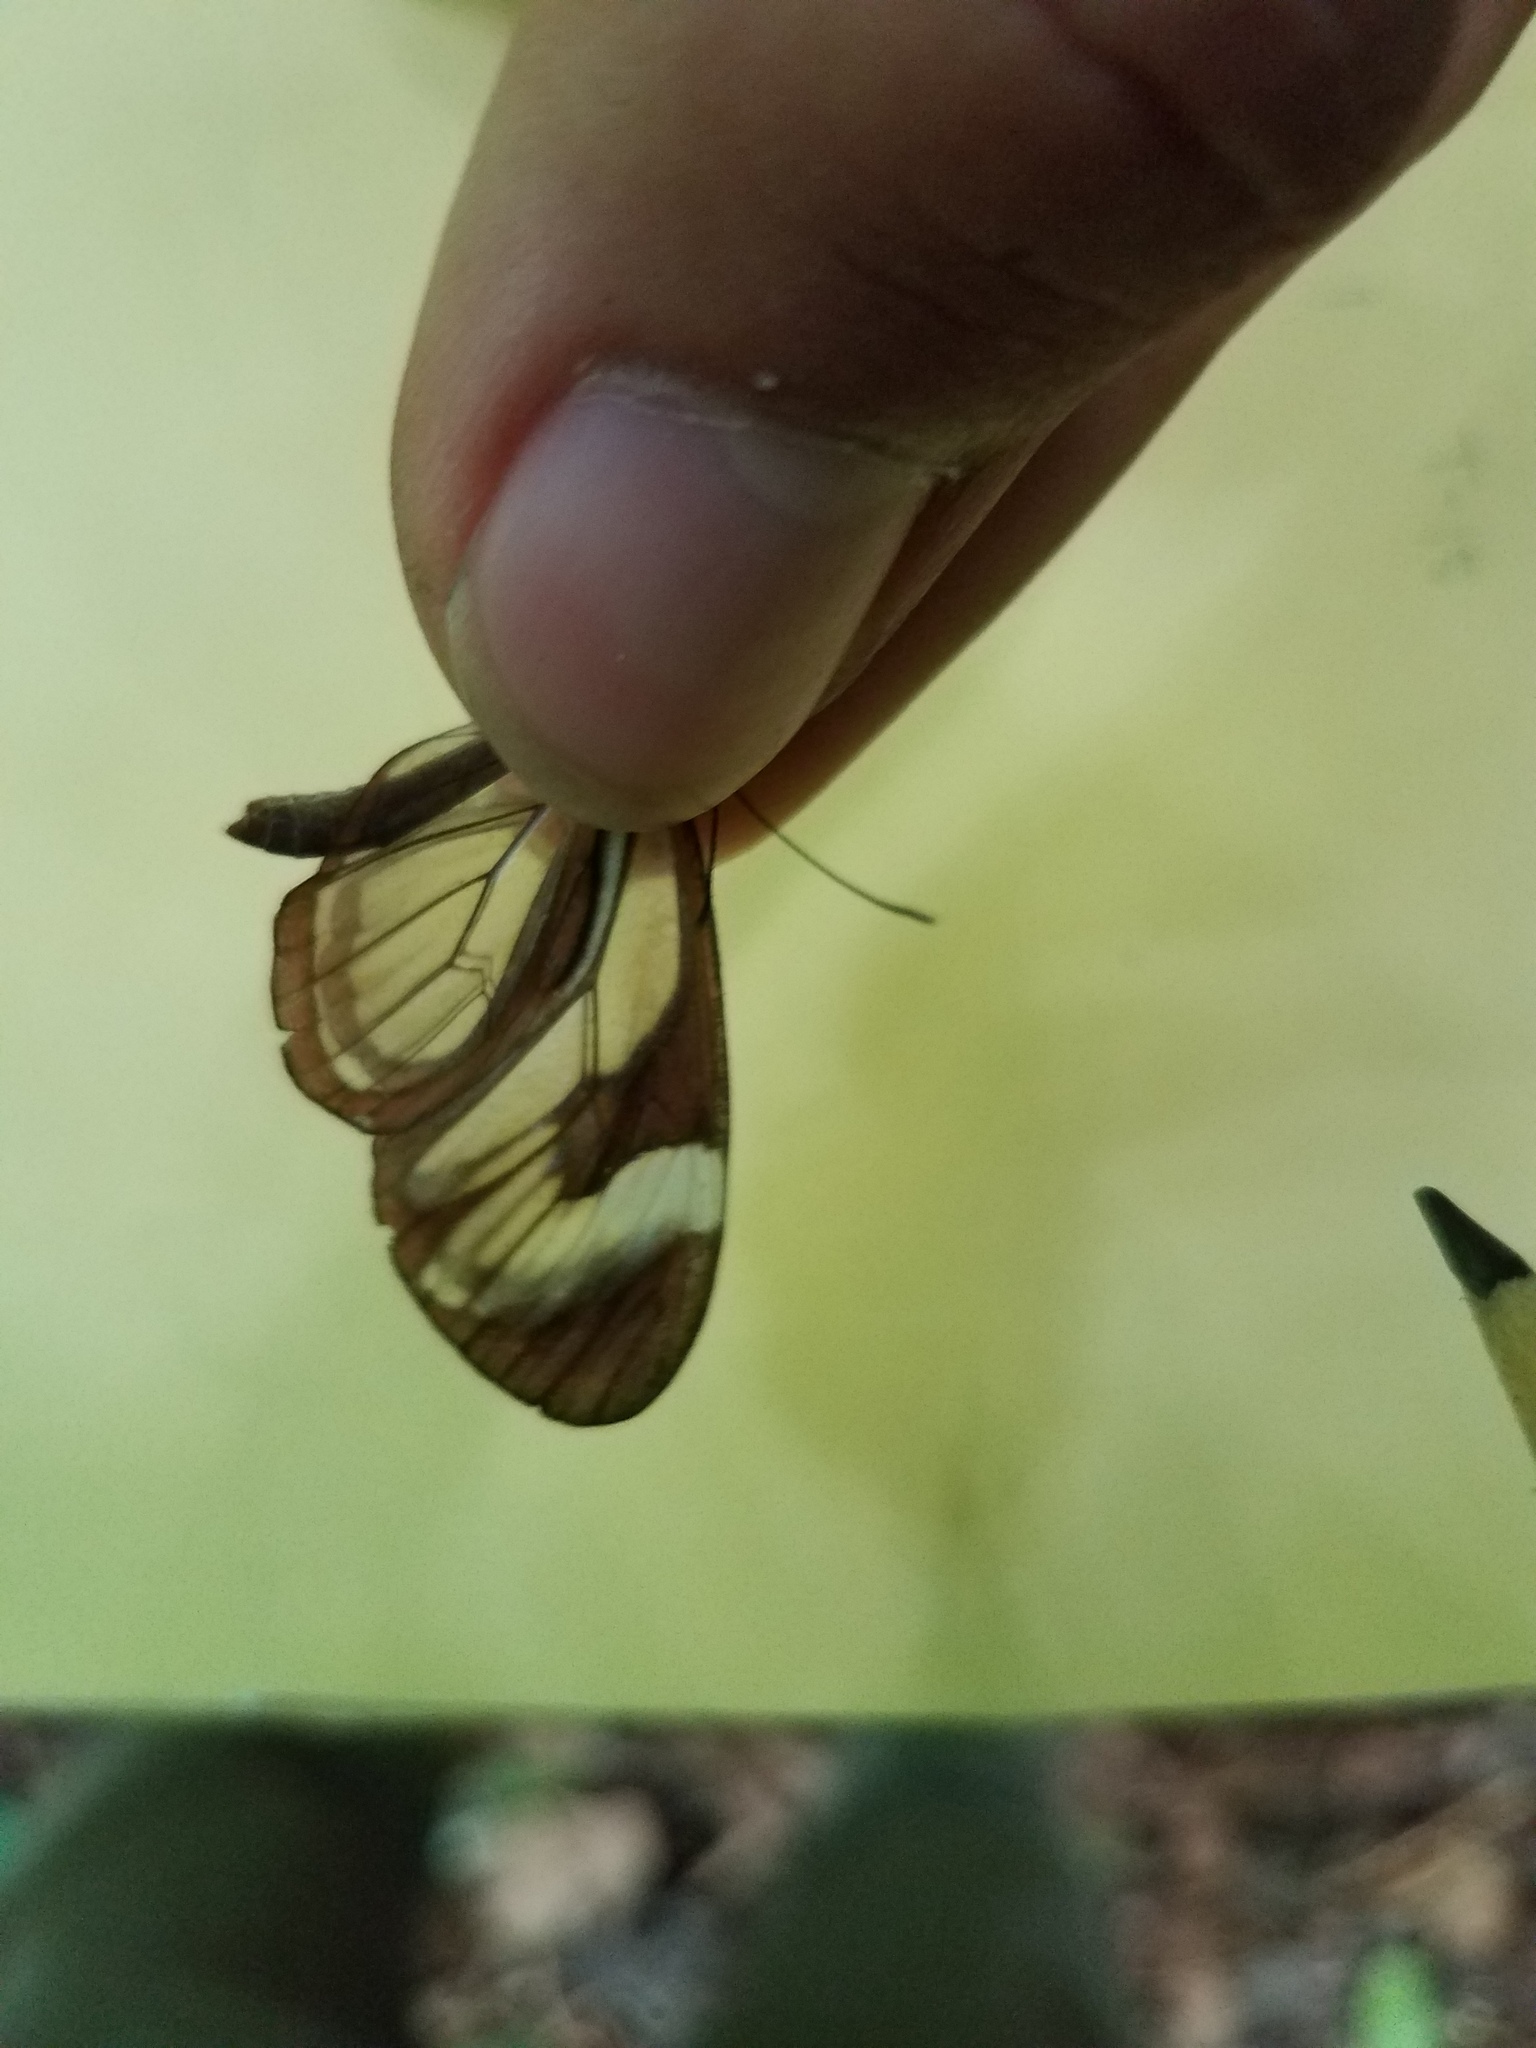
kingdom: Animalia
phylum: Arthropoda
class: Insecta
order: Lepidoptera
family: Nymphalidae
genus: Ithomia
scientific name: Ithomia patilla
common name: Patilla clearwing
